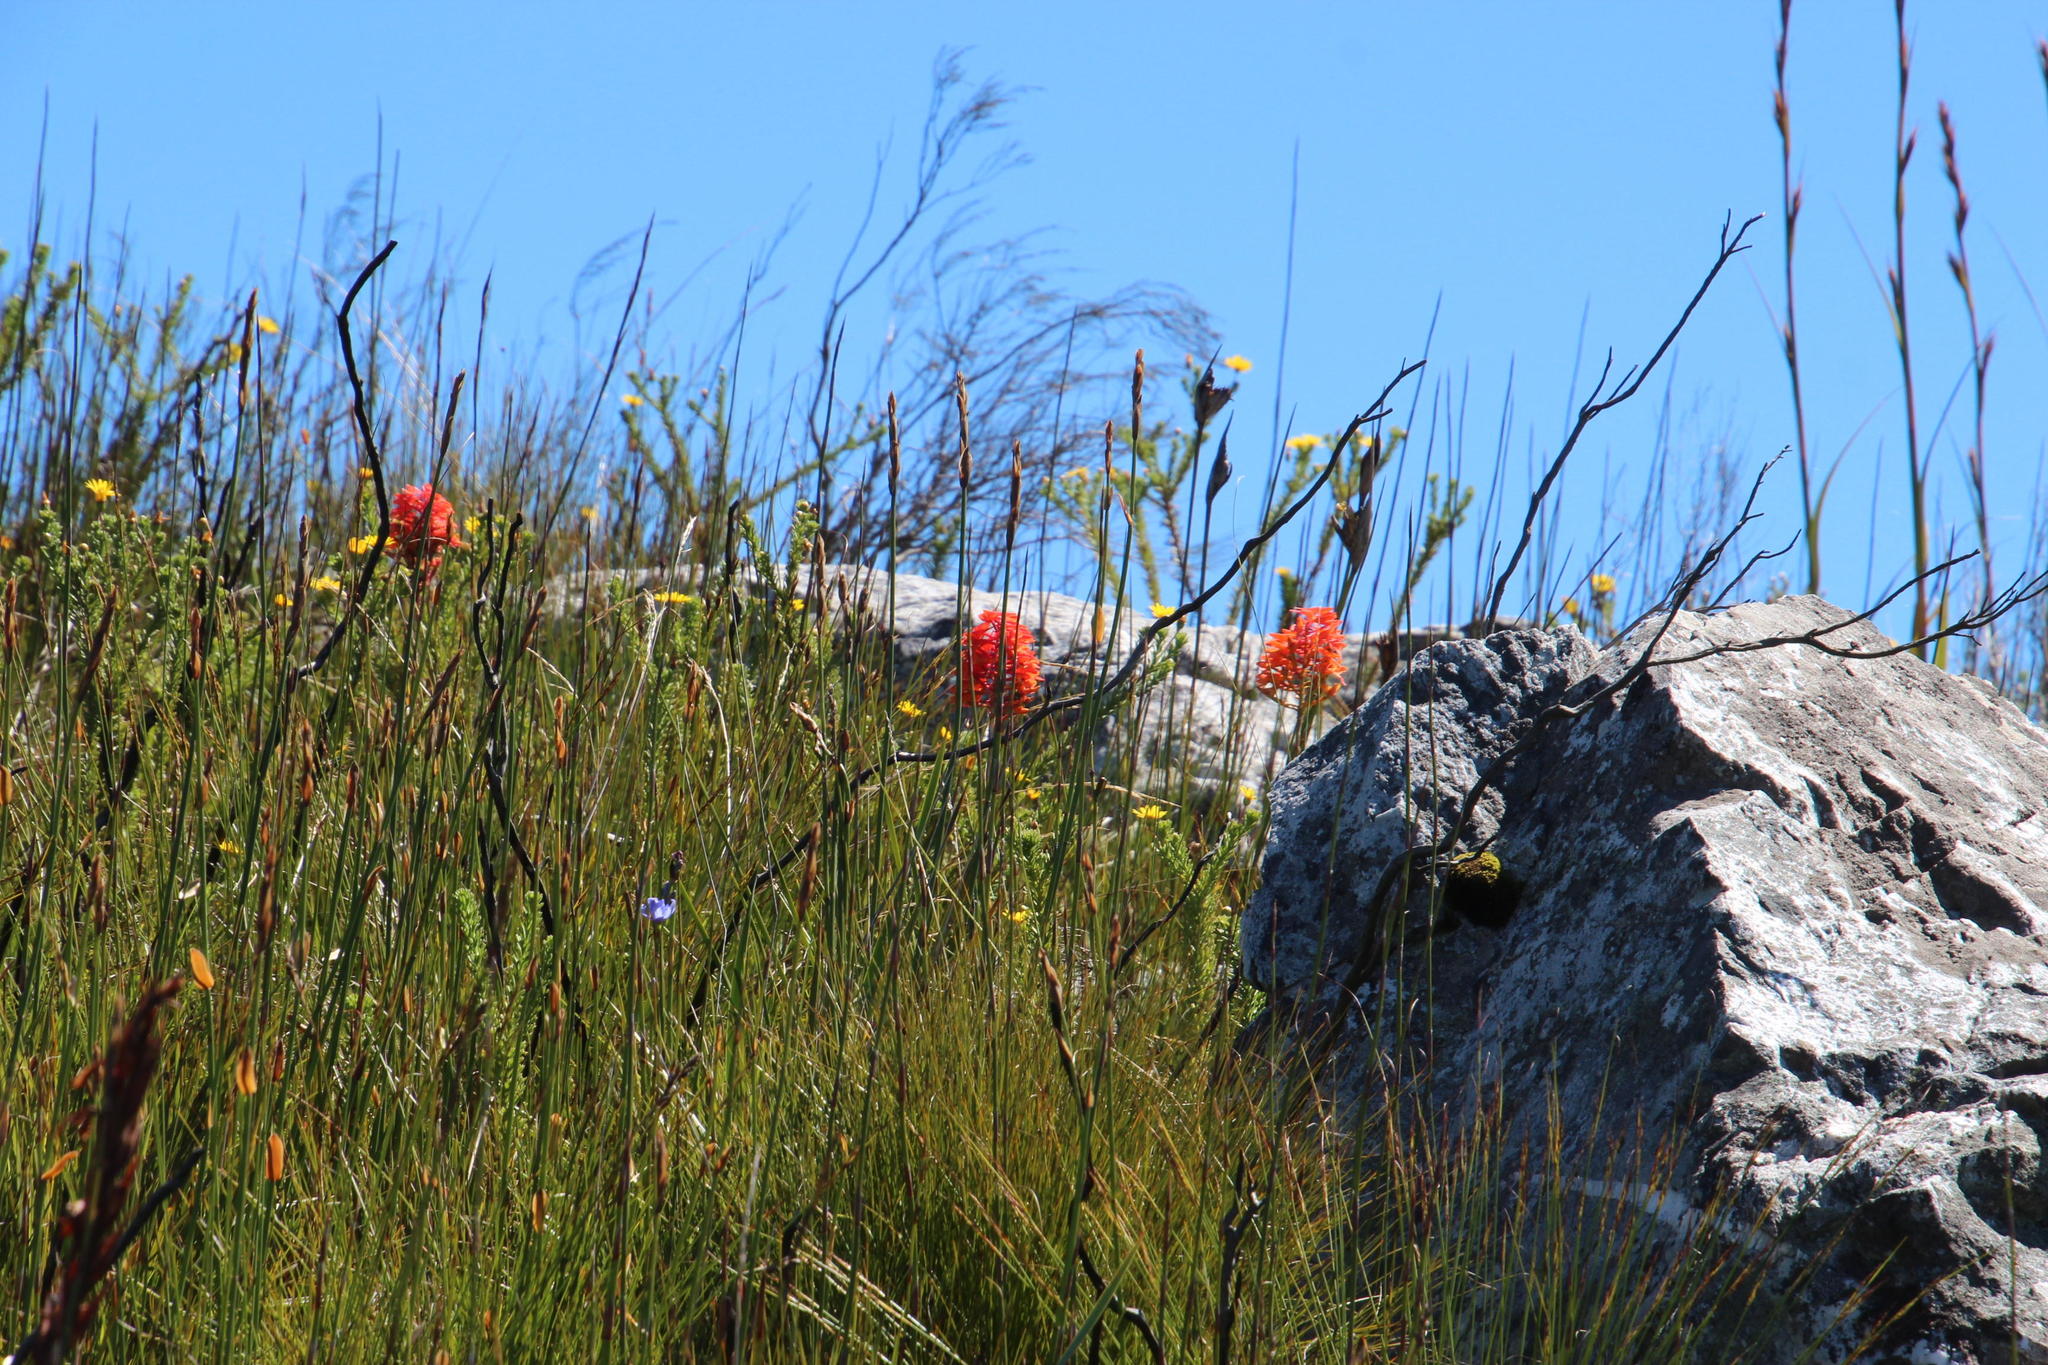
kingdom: Plantae
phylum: Tracheophyta
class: Liliopsida
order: Asparagales
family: Orchidaceae
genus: Disa
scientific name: Disa ferruginea
